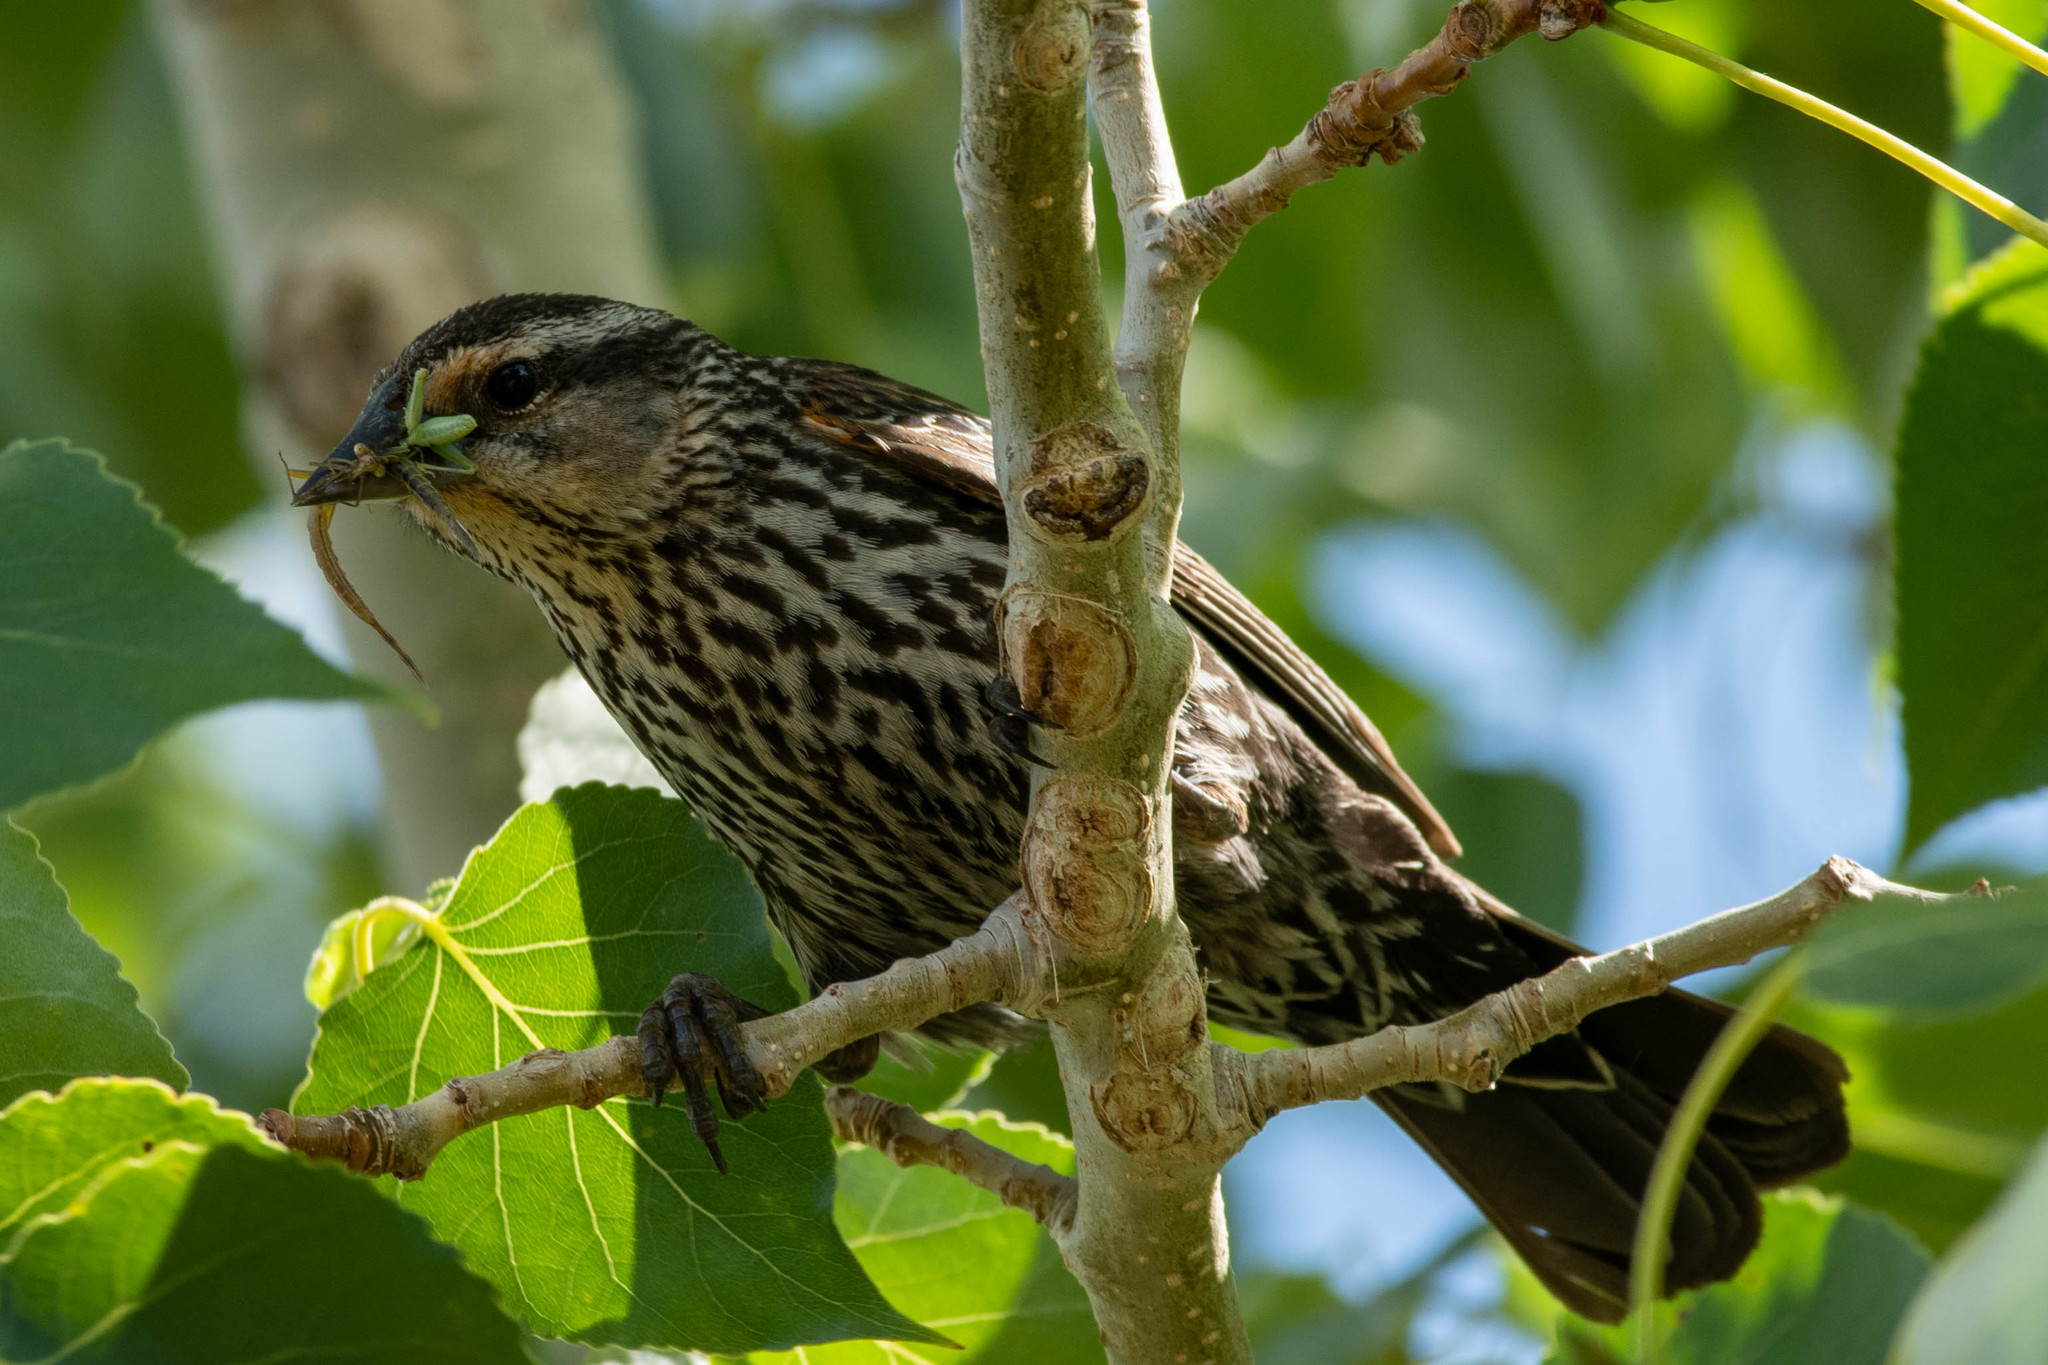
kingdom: Animalia
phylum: Chordata
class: Aves
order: Passeriformes
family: Icteridae
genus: Agelaius
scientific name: Agelaius phoeniceus
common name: Red-winged blackbird
